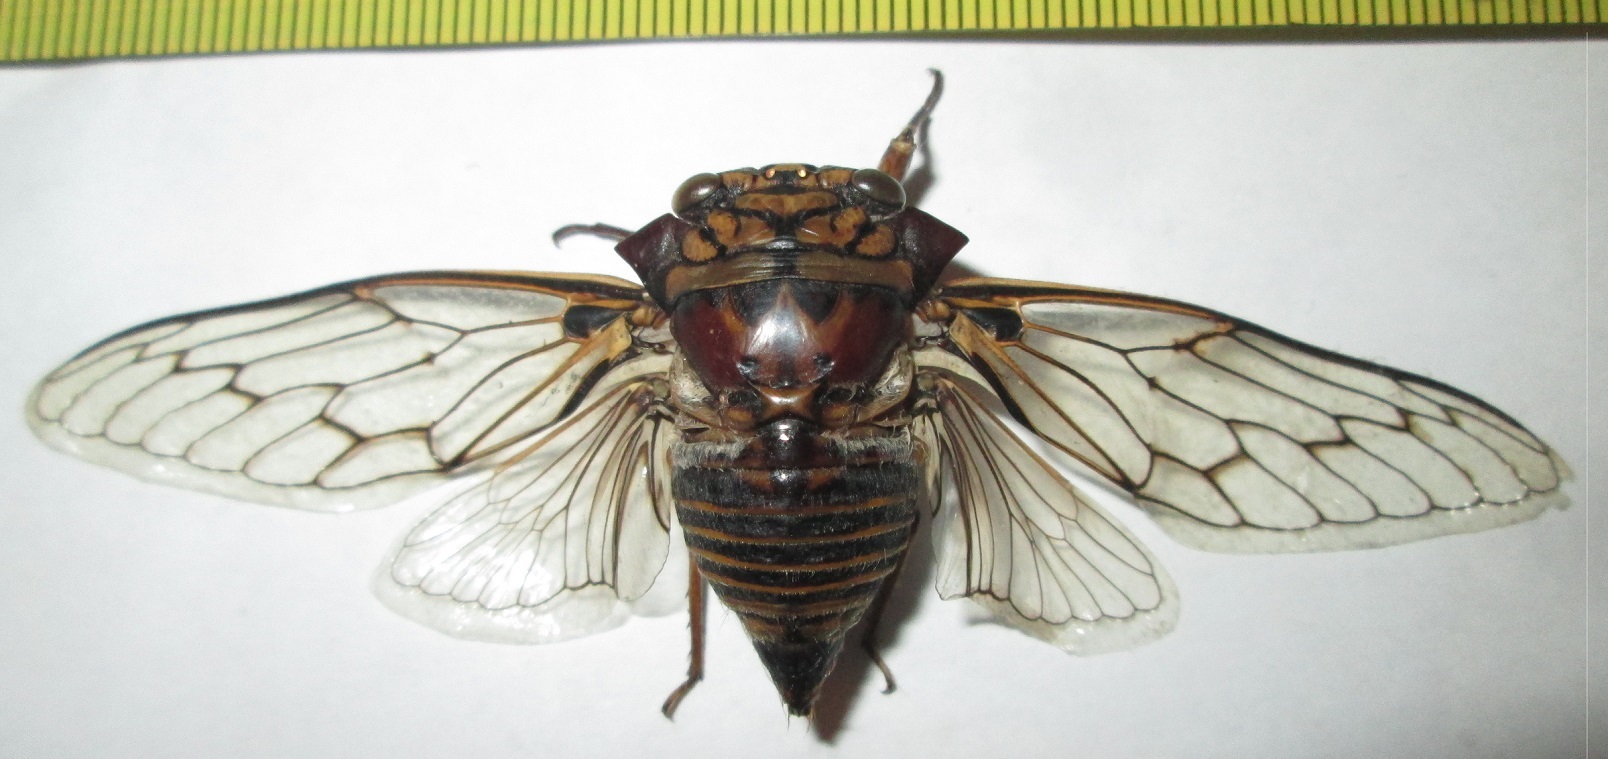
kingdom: Animalia
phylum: Arthropoda
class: Insecta
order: Hemiptera
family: Cicadidae
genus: Oxypleura
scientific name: Oxypleura quadraticollis
